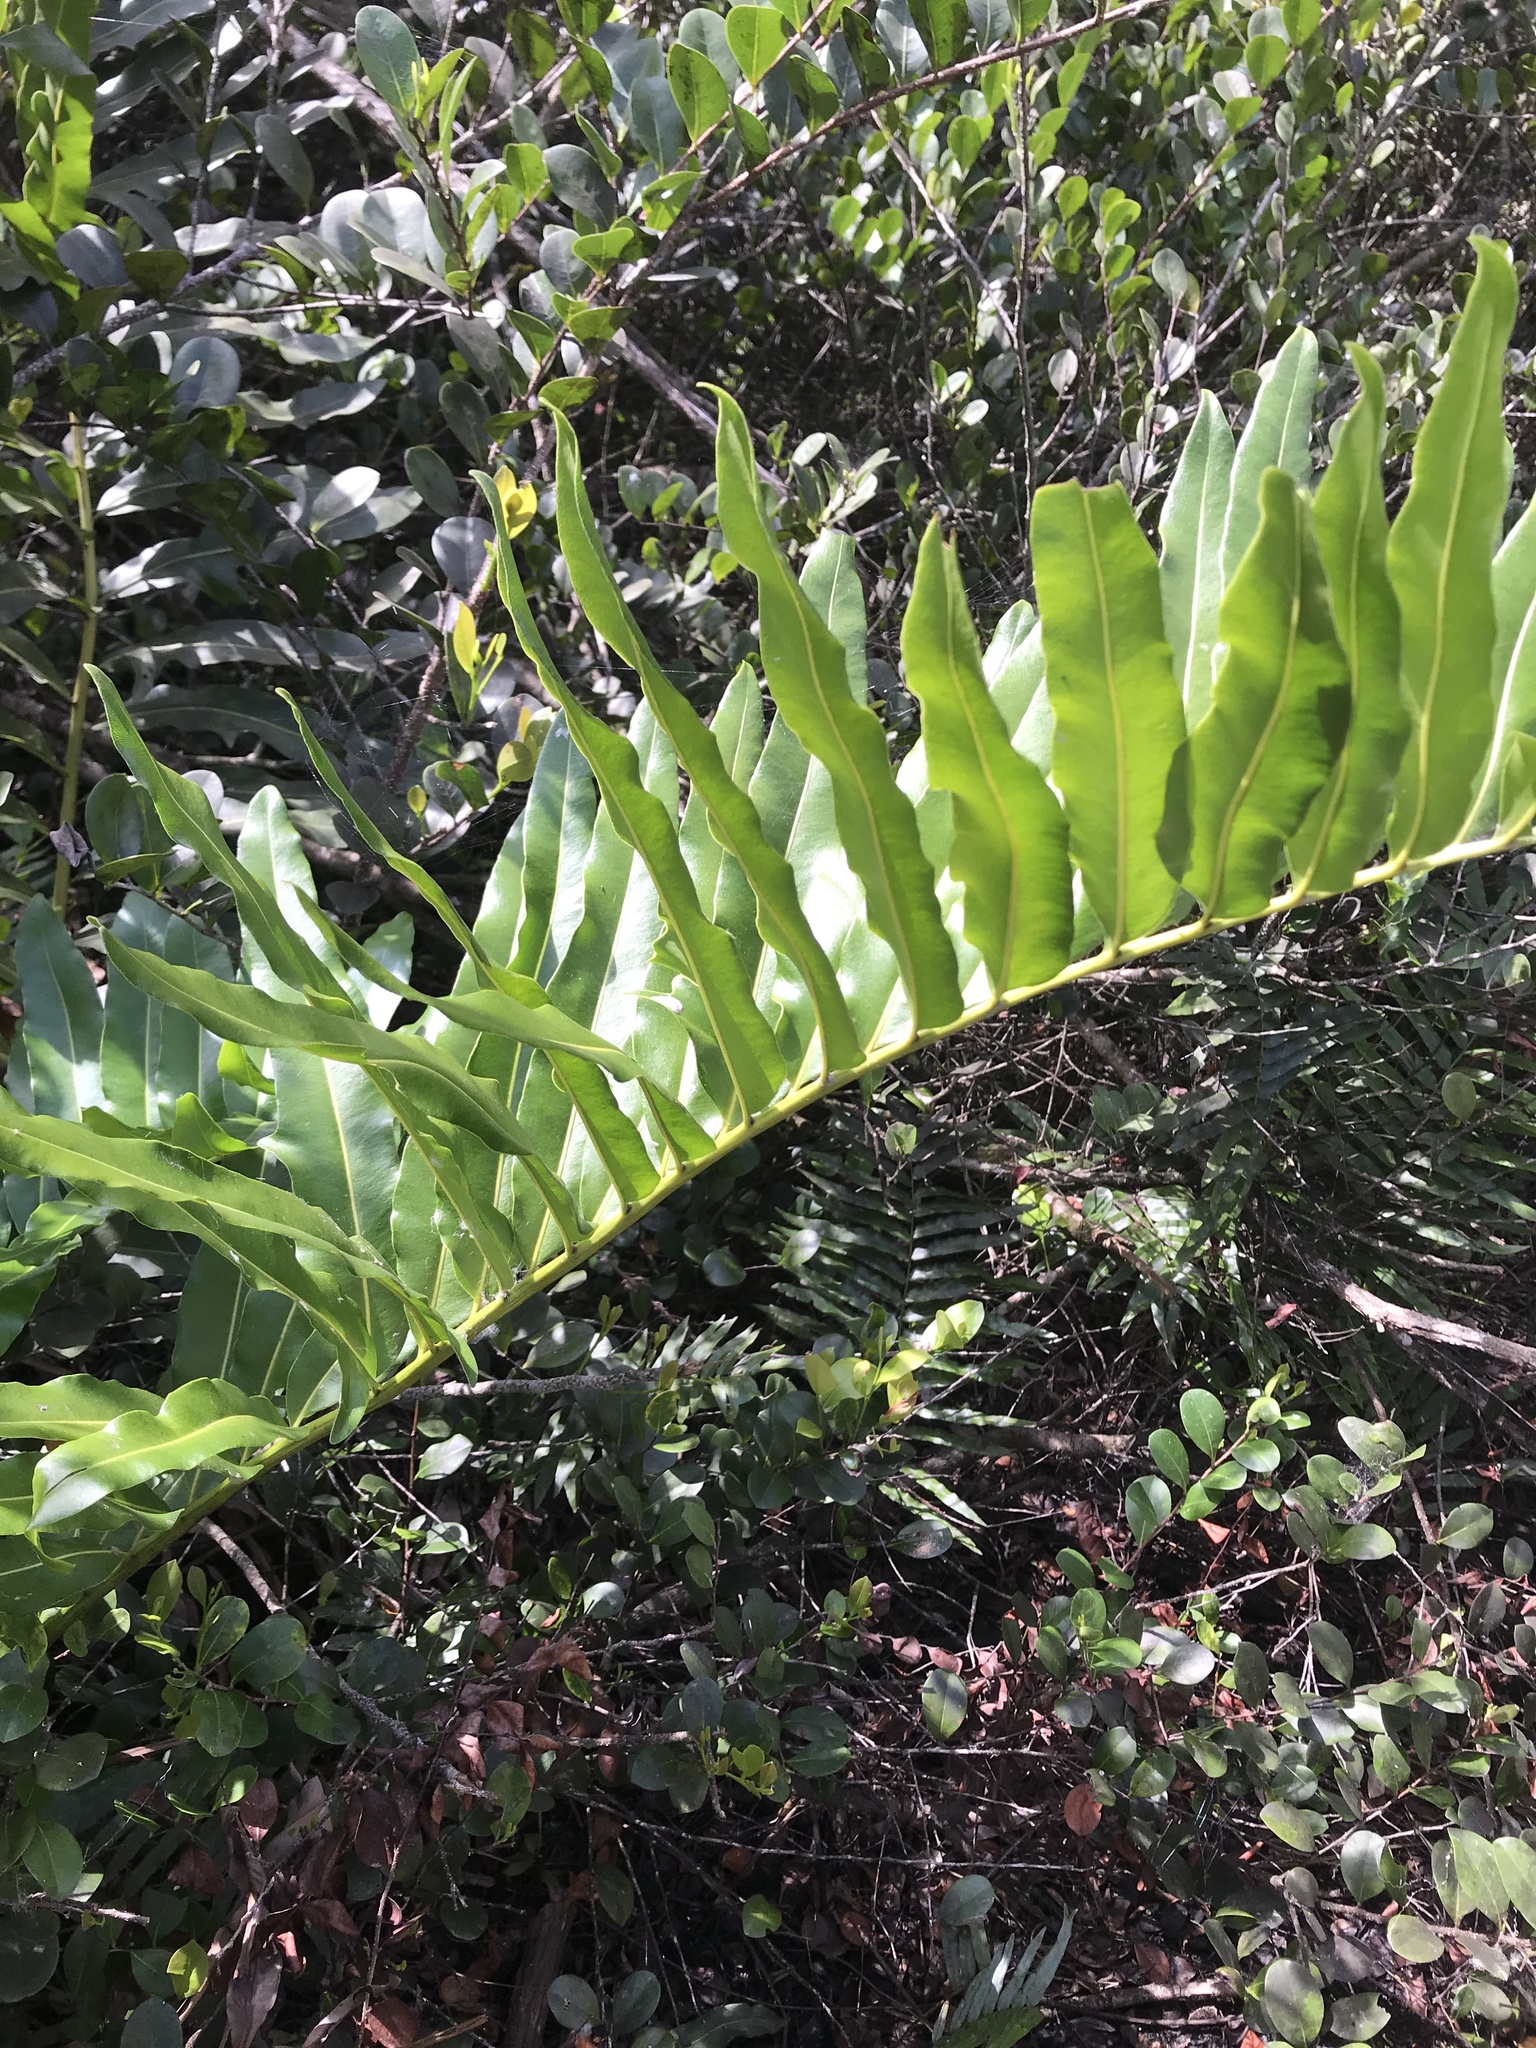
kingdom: Plantae
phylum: Tracheophyta
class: Polypodiopsida
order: Polypodiales
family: Pteridaceae
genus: Acrostichum
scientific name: Acrostichum danaeifolium
